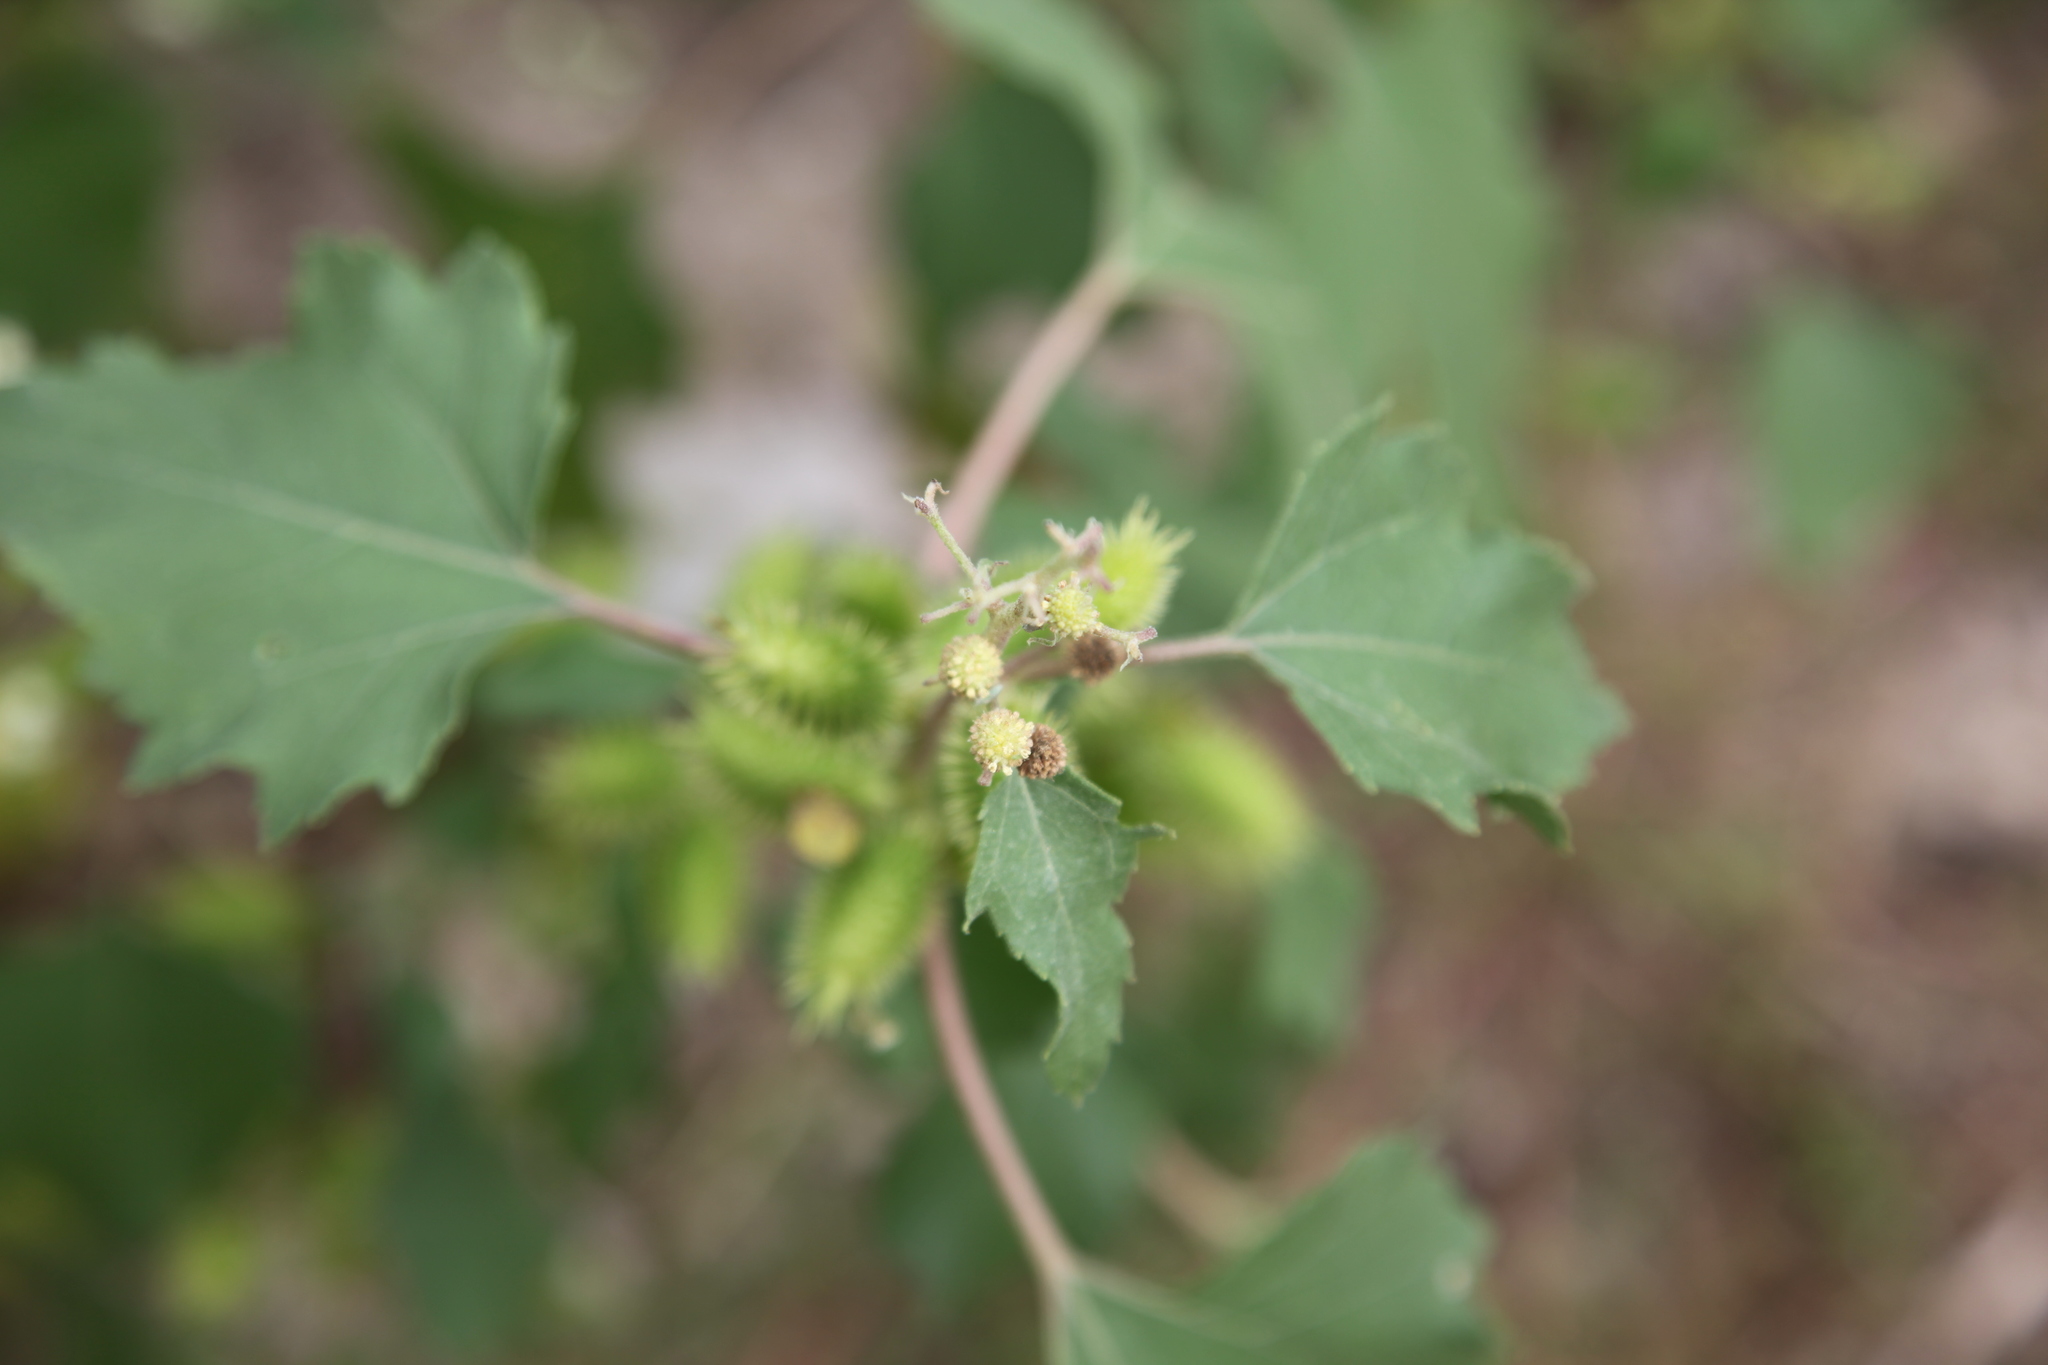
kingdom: Plantae
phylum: Tracheophyta
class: Magnoliopsida
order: Asterales
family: Asteraceae
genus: Xanthium
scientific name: Xanthium strumarium
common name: Rough cocklebur
